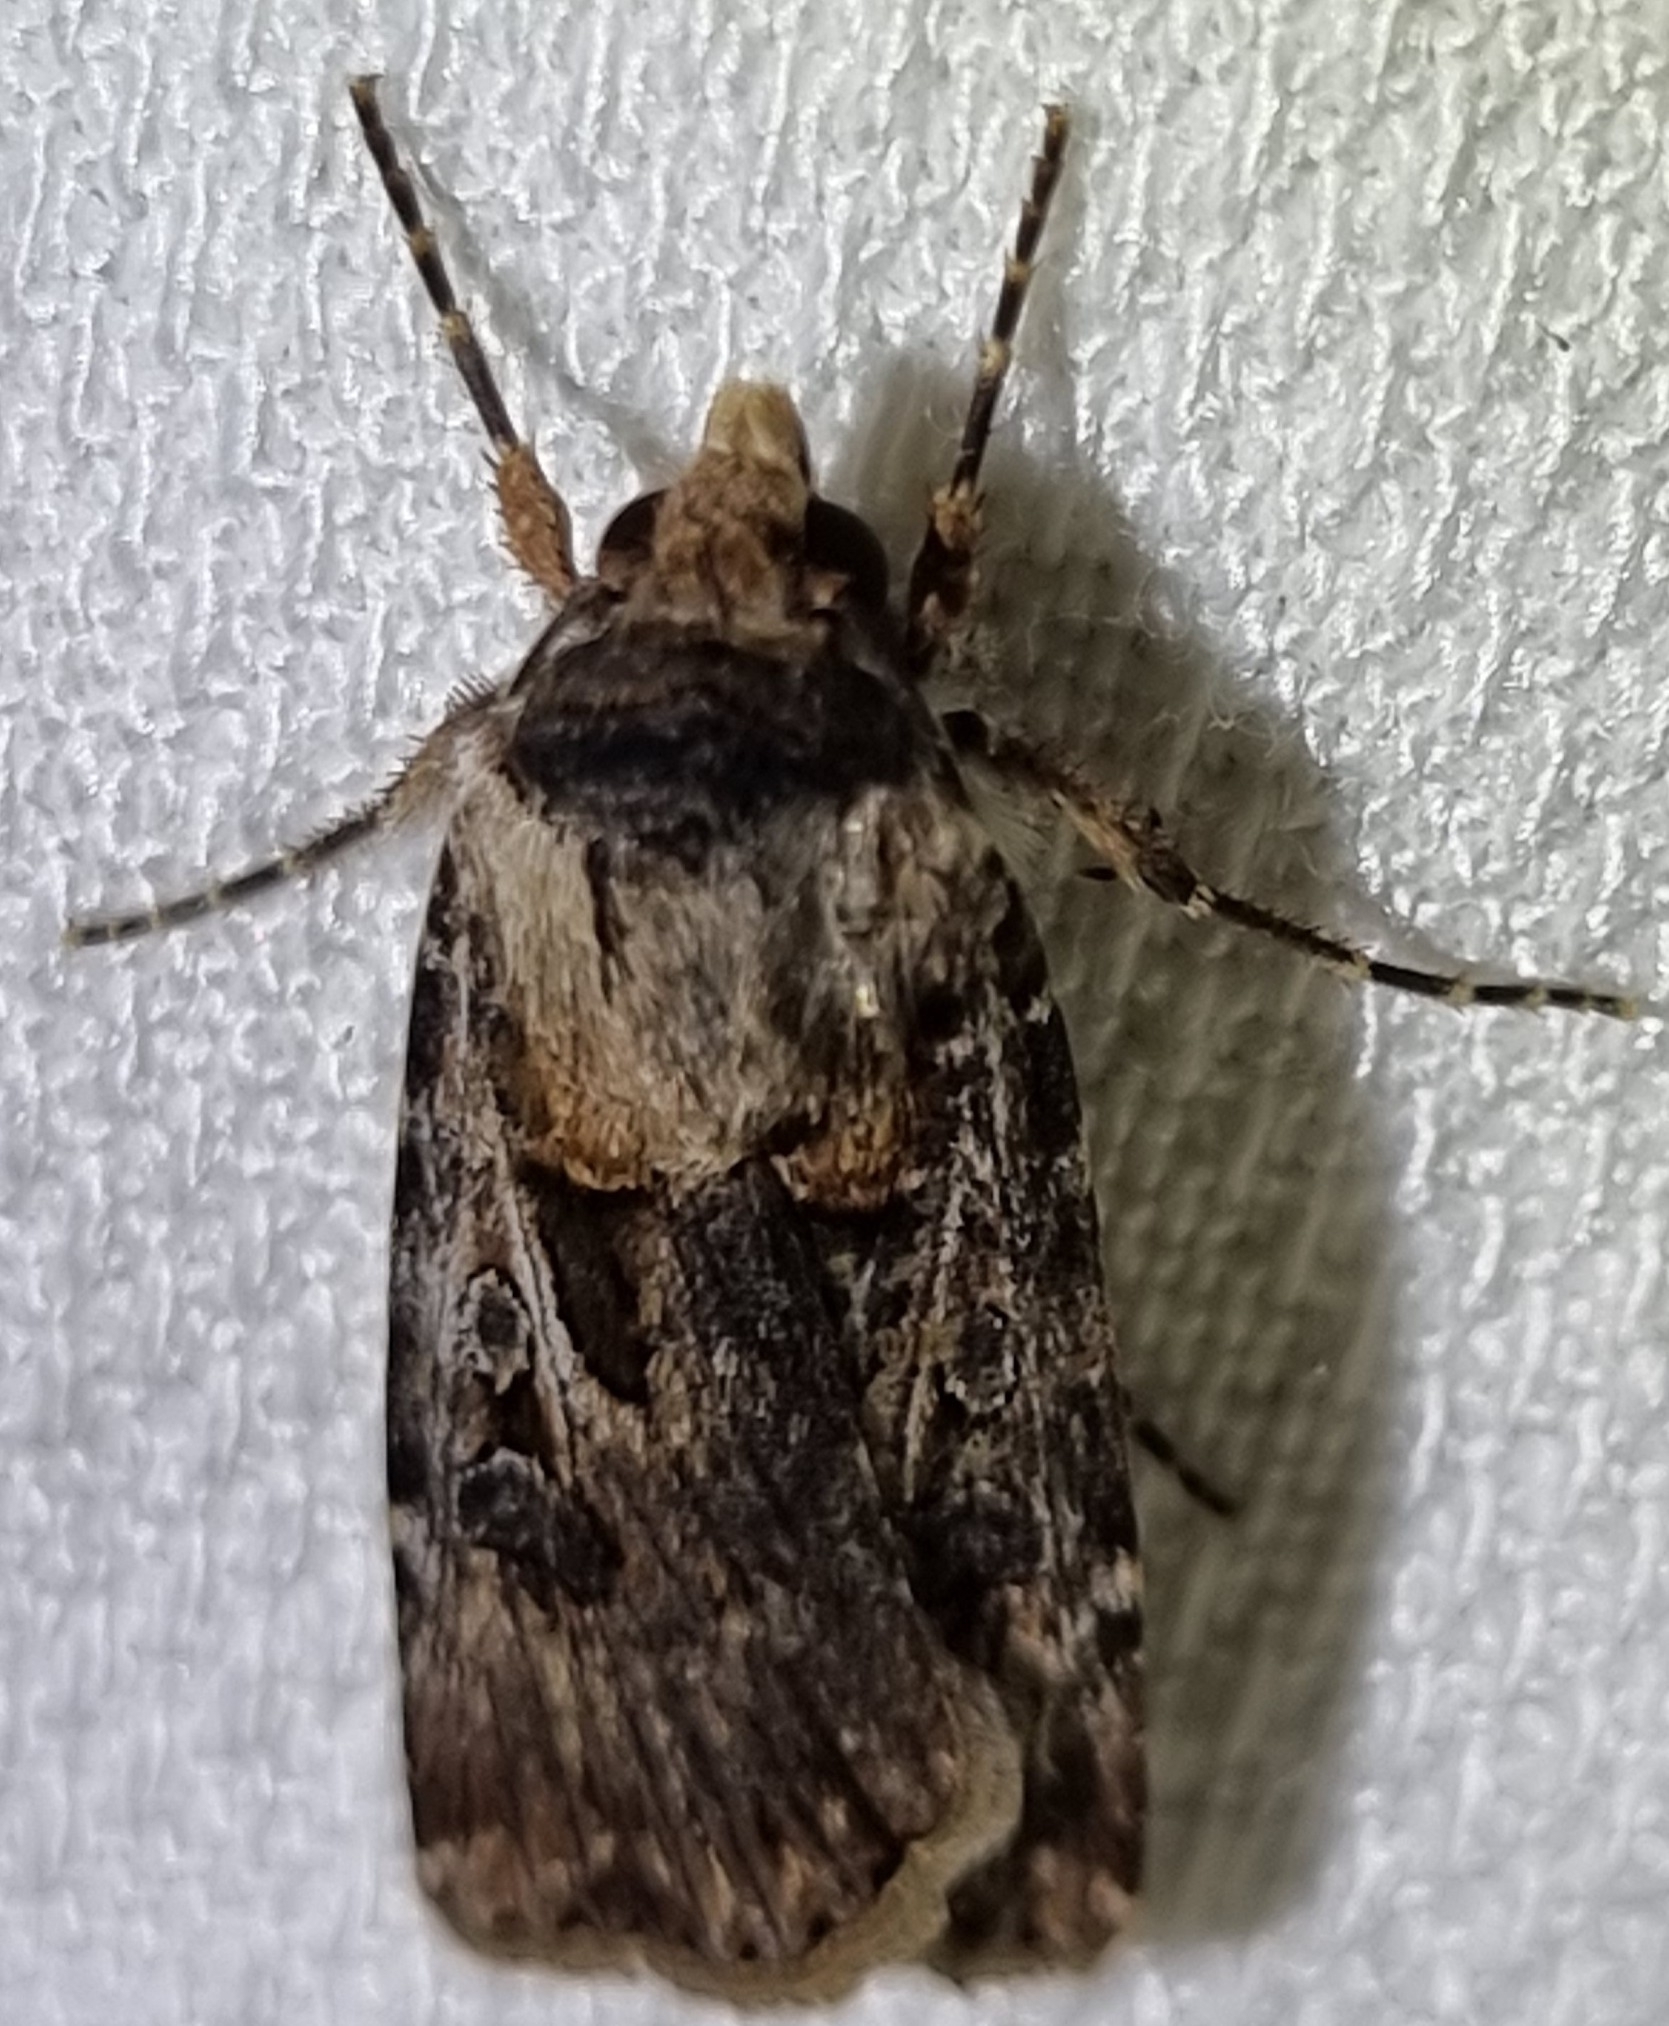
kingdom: Animalia
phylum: Arthropoda
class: Insecta
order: Lepidoptera
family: Noctuidae
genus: Agrotis
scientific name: Agrotis munda
